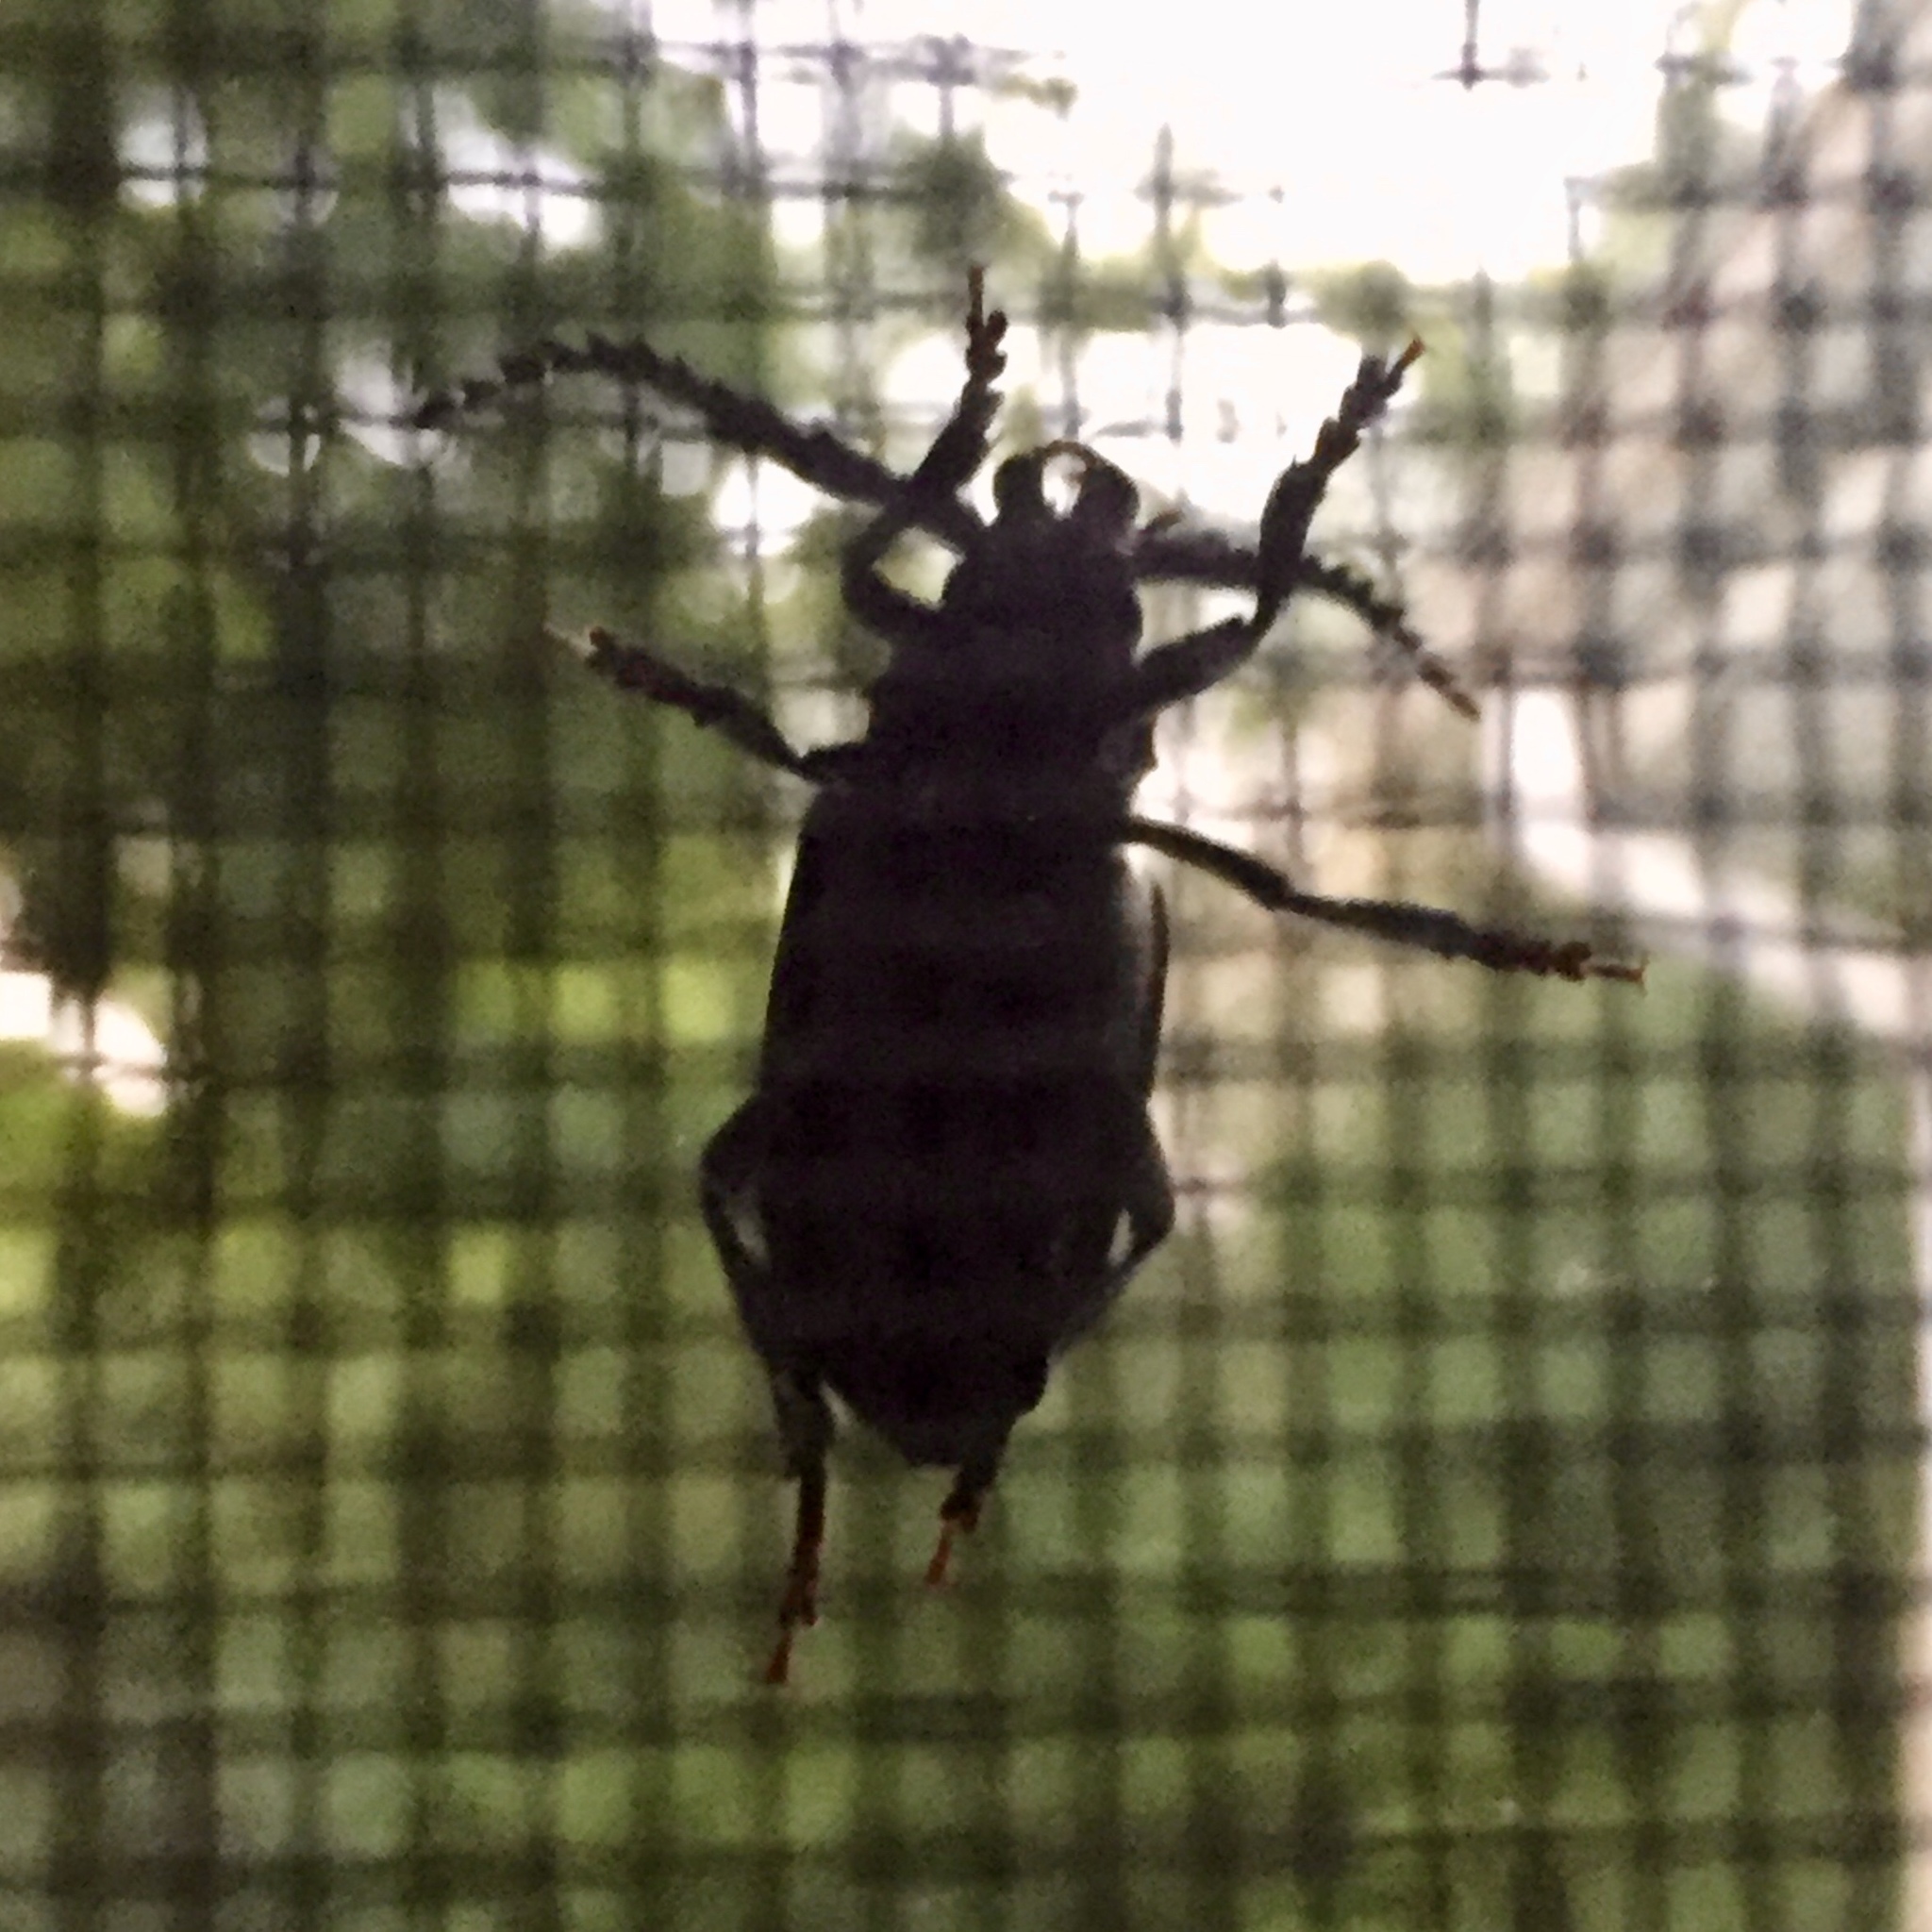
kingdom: Animalia
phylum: Arthropoda
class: Insecta
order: Coleoptera
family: Cerambycidae
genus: Prionus
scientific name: Prionus laticollis
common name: Broad necked prionus
